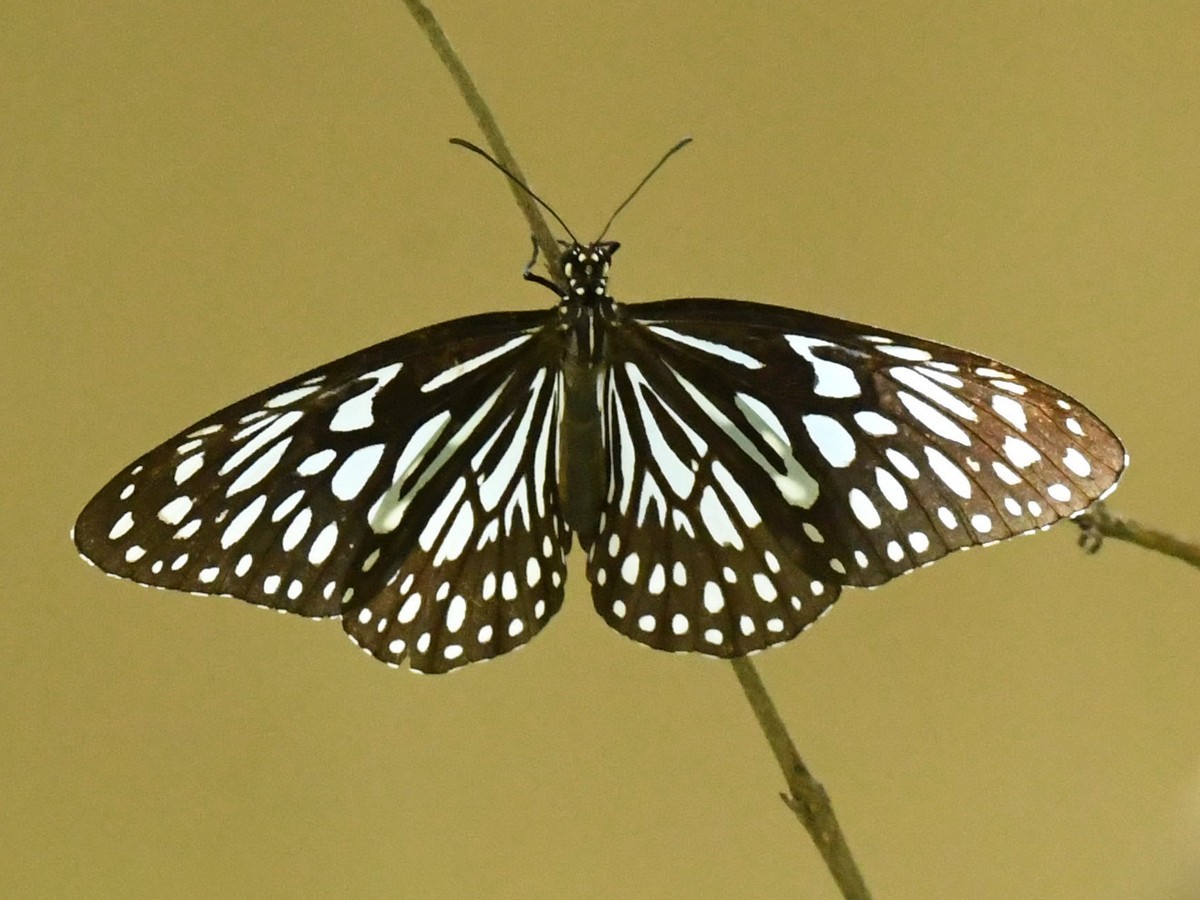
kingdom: Animalia
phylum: Arthropoda
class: Insecta
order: Lepidoptera
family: Nymphalidae
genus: Tirumala
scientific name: Tirumala septentrionis
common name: Dark blue tiger butterfly
